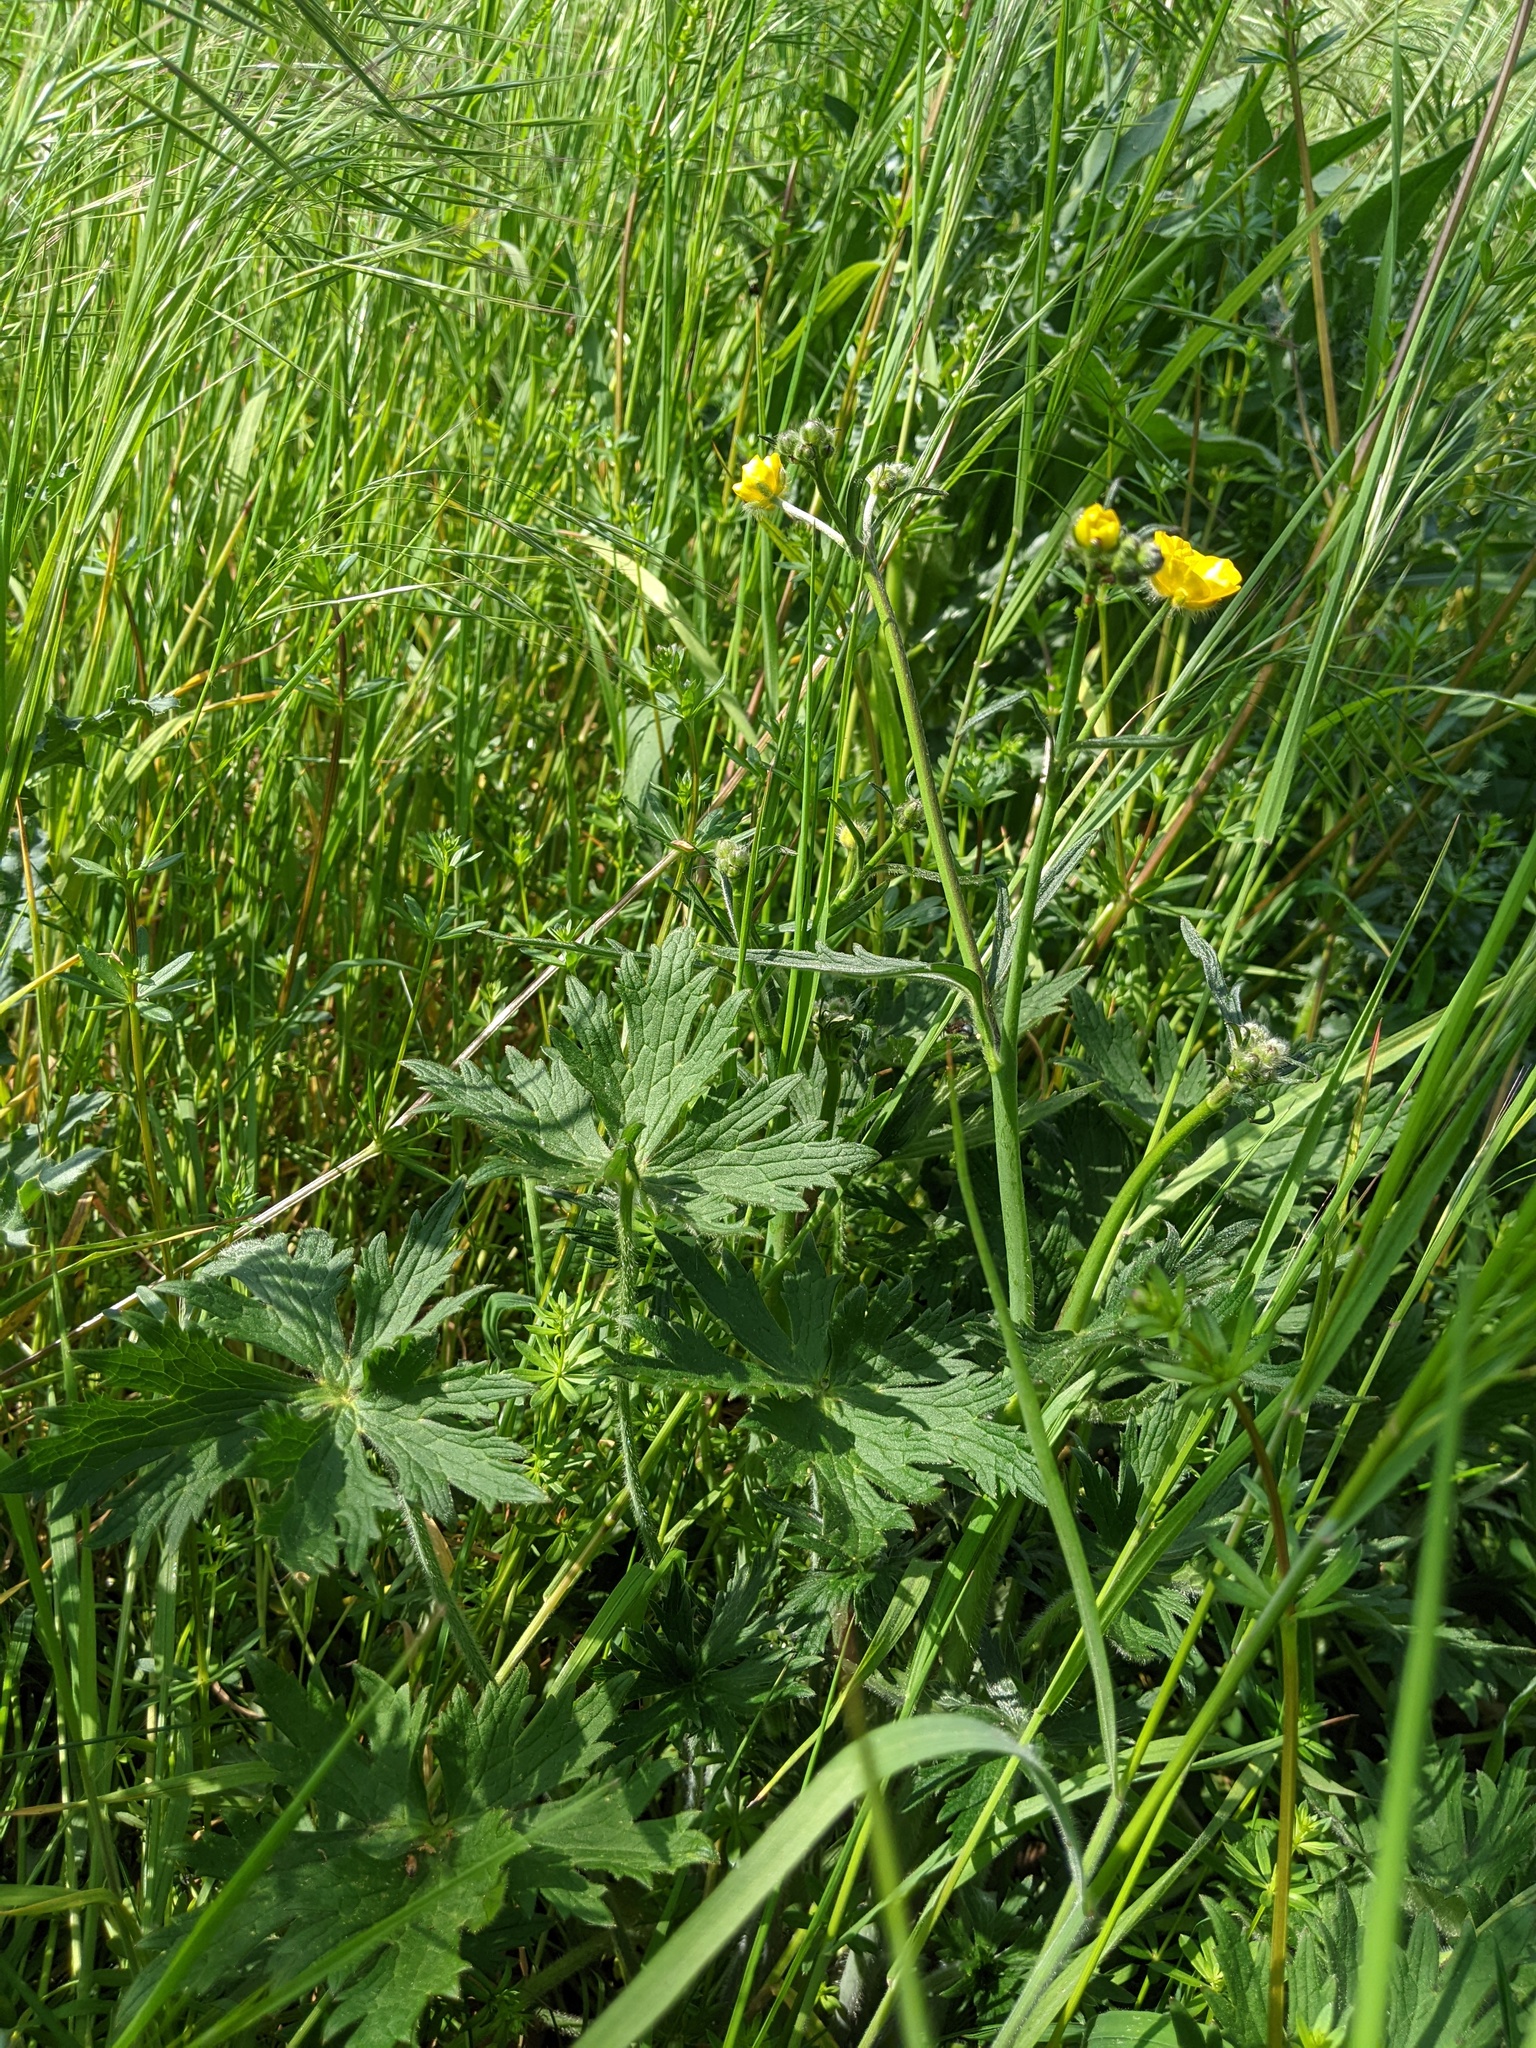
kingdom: Plantae
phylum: Tracheophyta
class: Magnoliopsida
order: Ranunculales
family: Ranunculaceae
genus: Ranunculus
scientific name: Ranunculus acris
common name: Meadow buttercup
